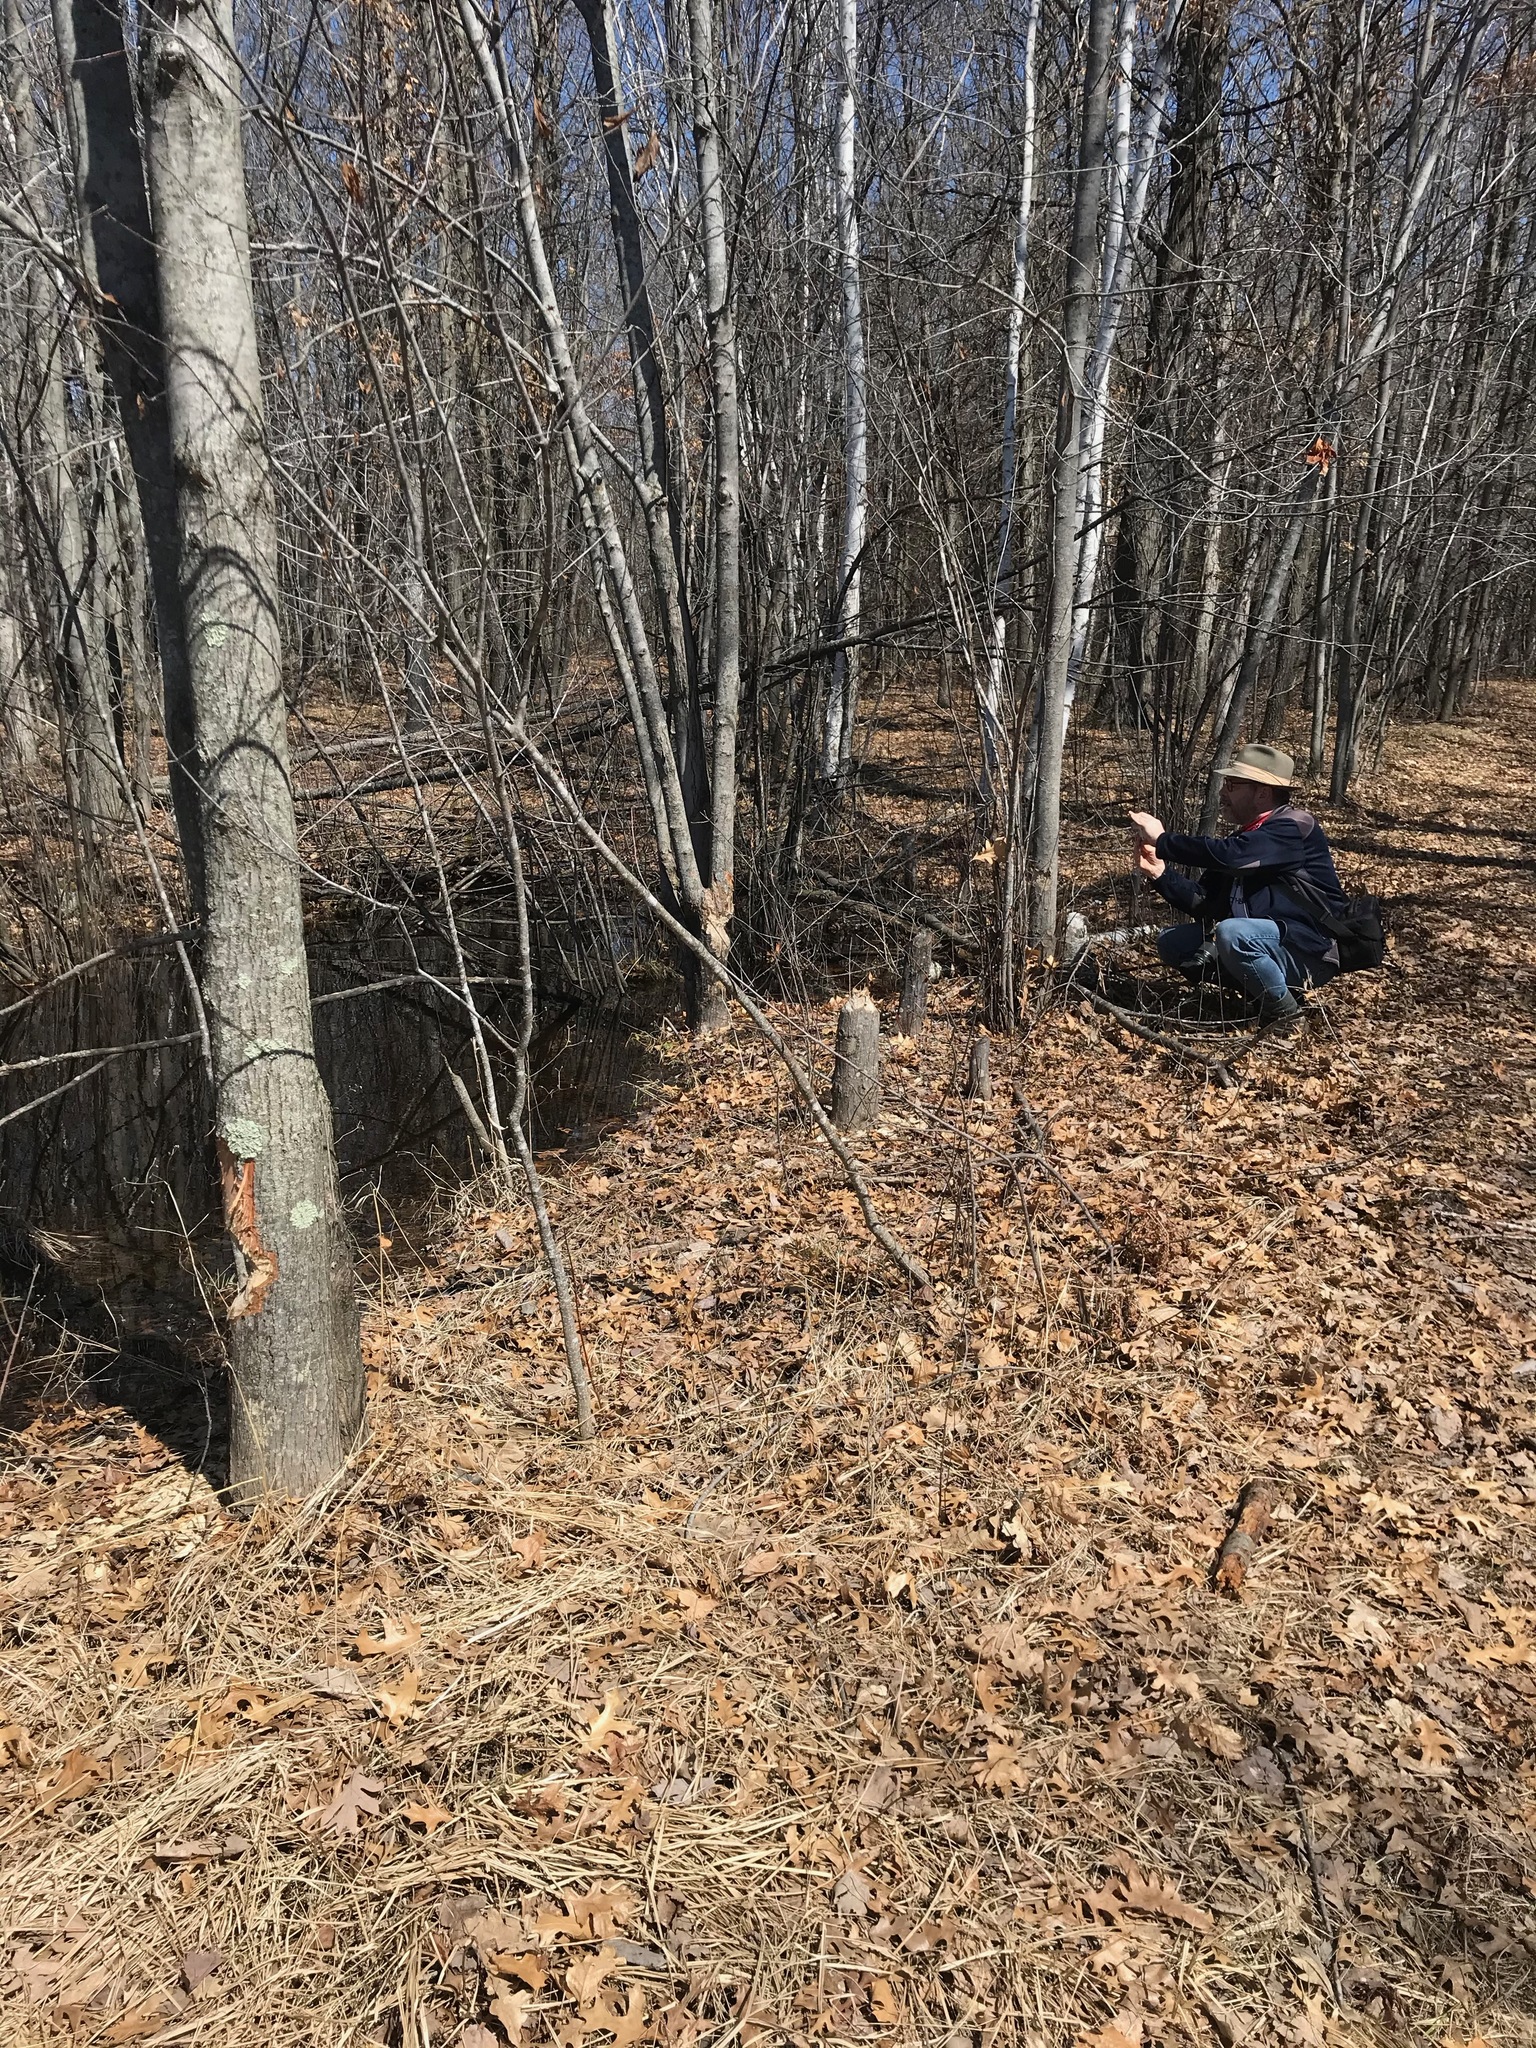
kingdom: Animalia
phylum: Chordata
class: Mammalia
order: Rodentia
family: Castoridae
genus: Castor
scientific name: Castor canadensis
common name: American beaver
